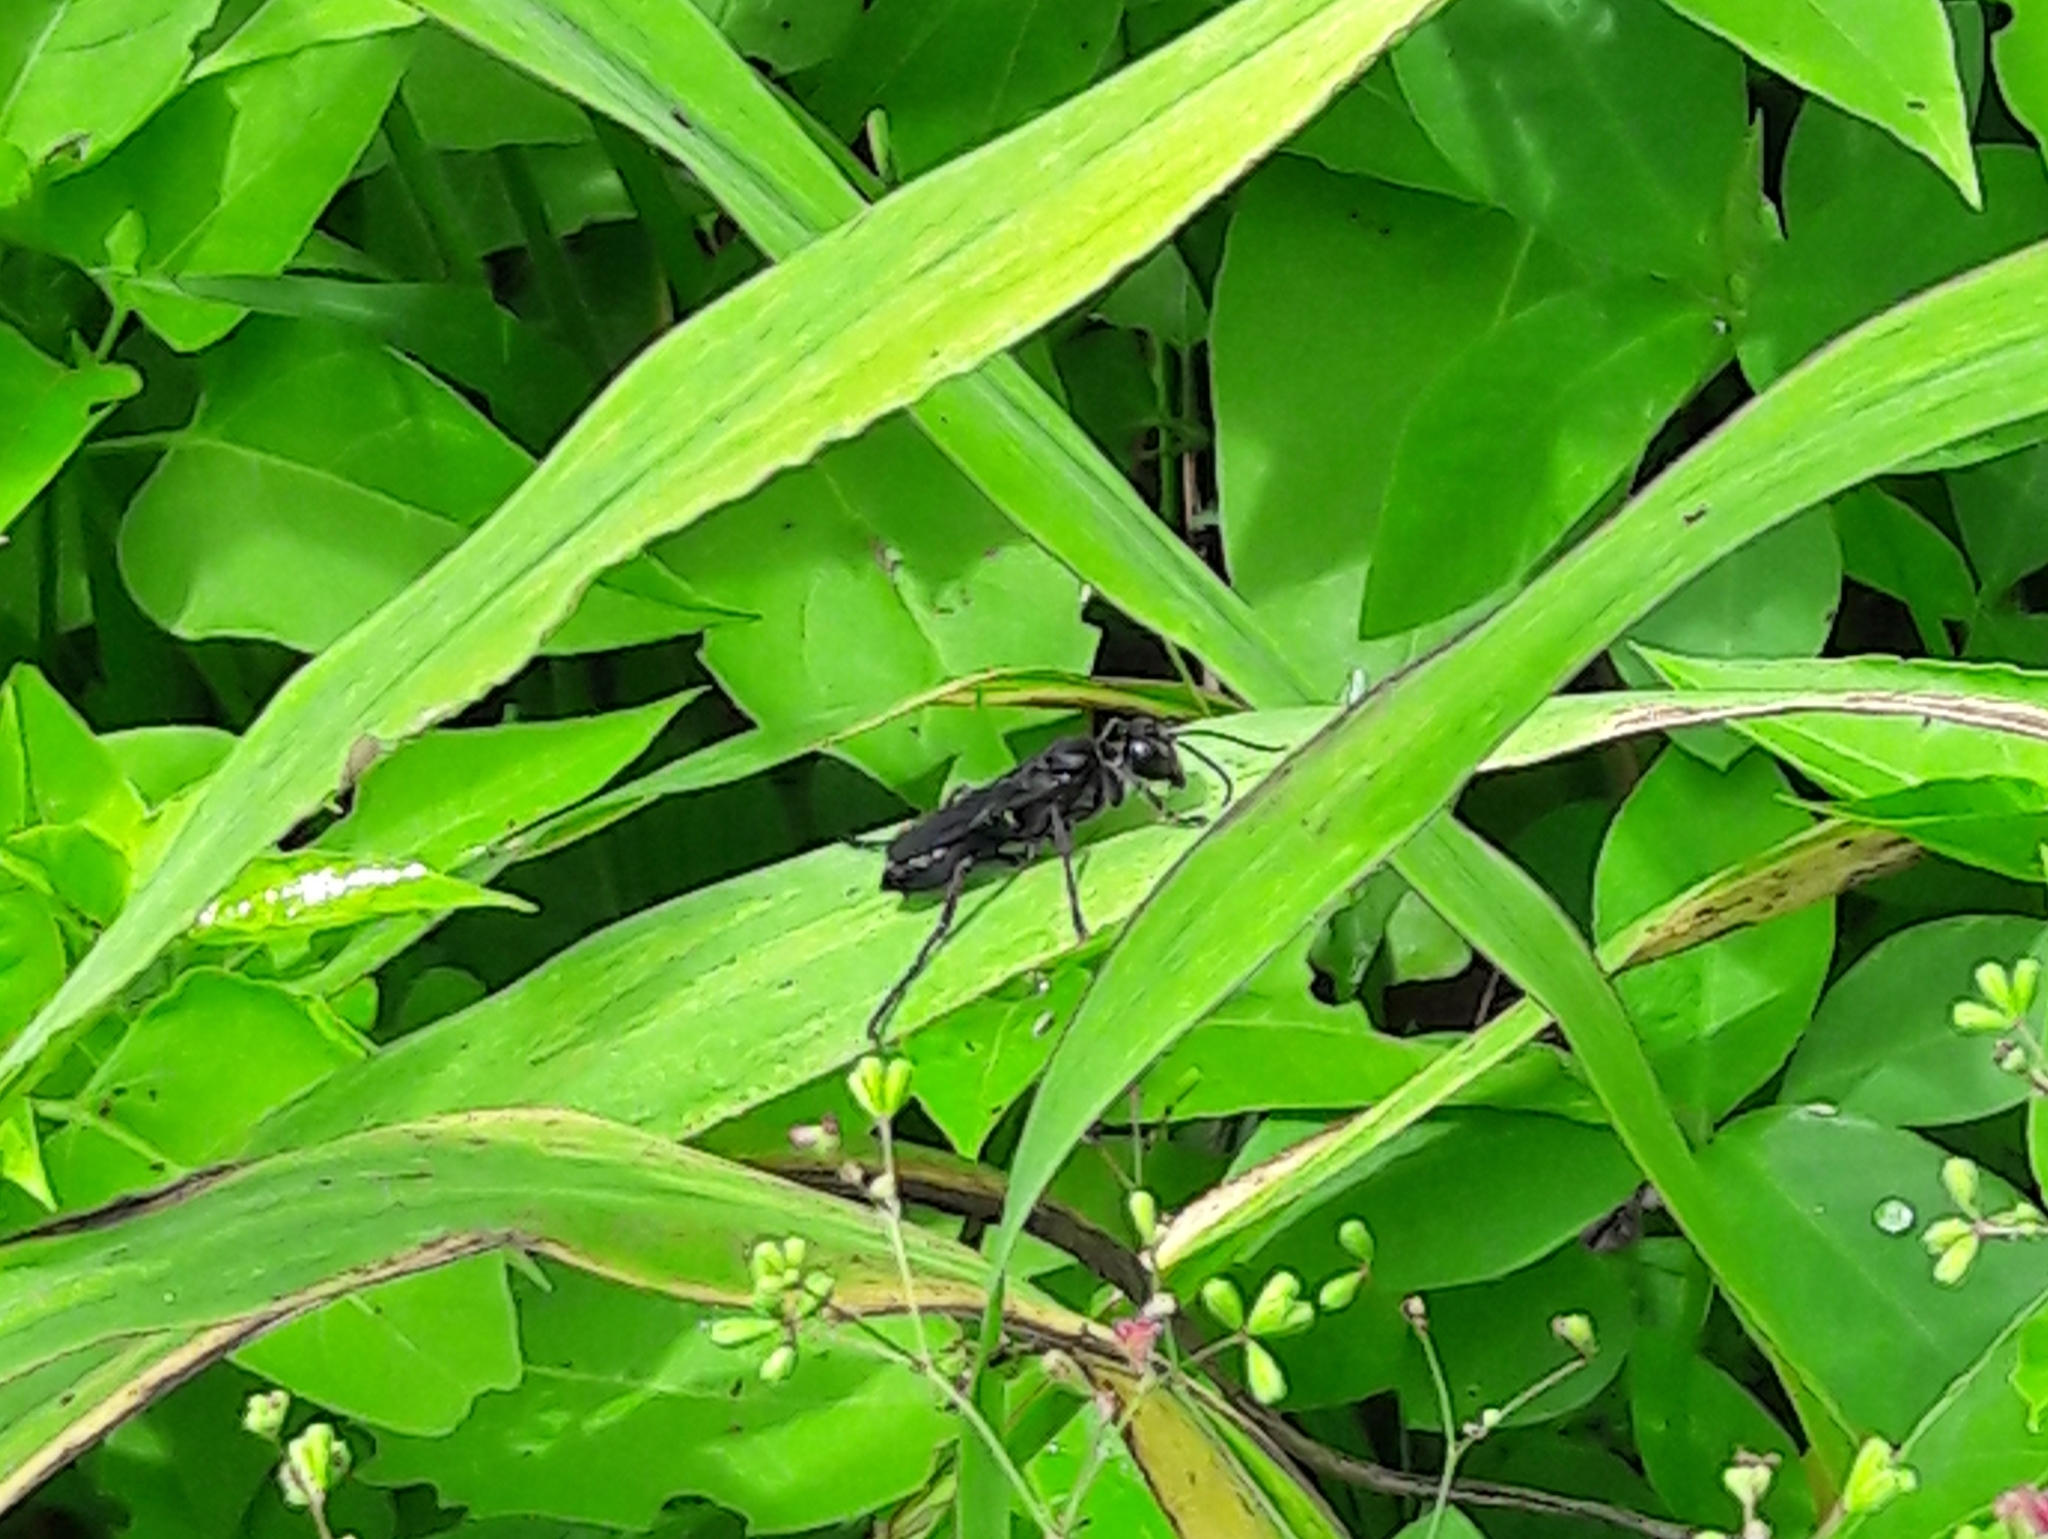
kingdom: Animalia
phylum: Arthropoda
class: Insecta
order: Hymenoptera
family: Sphecidae
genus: Sphex
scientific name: Sphex latro
